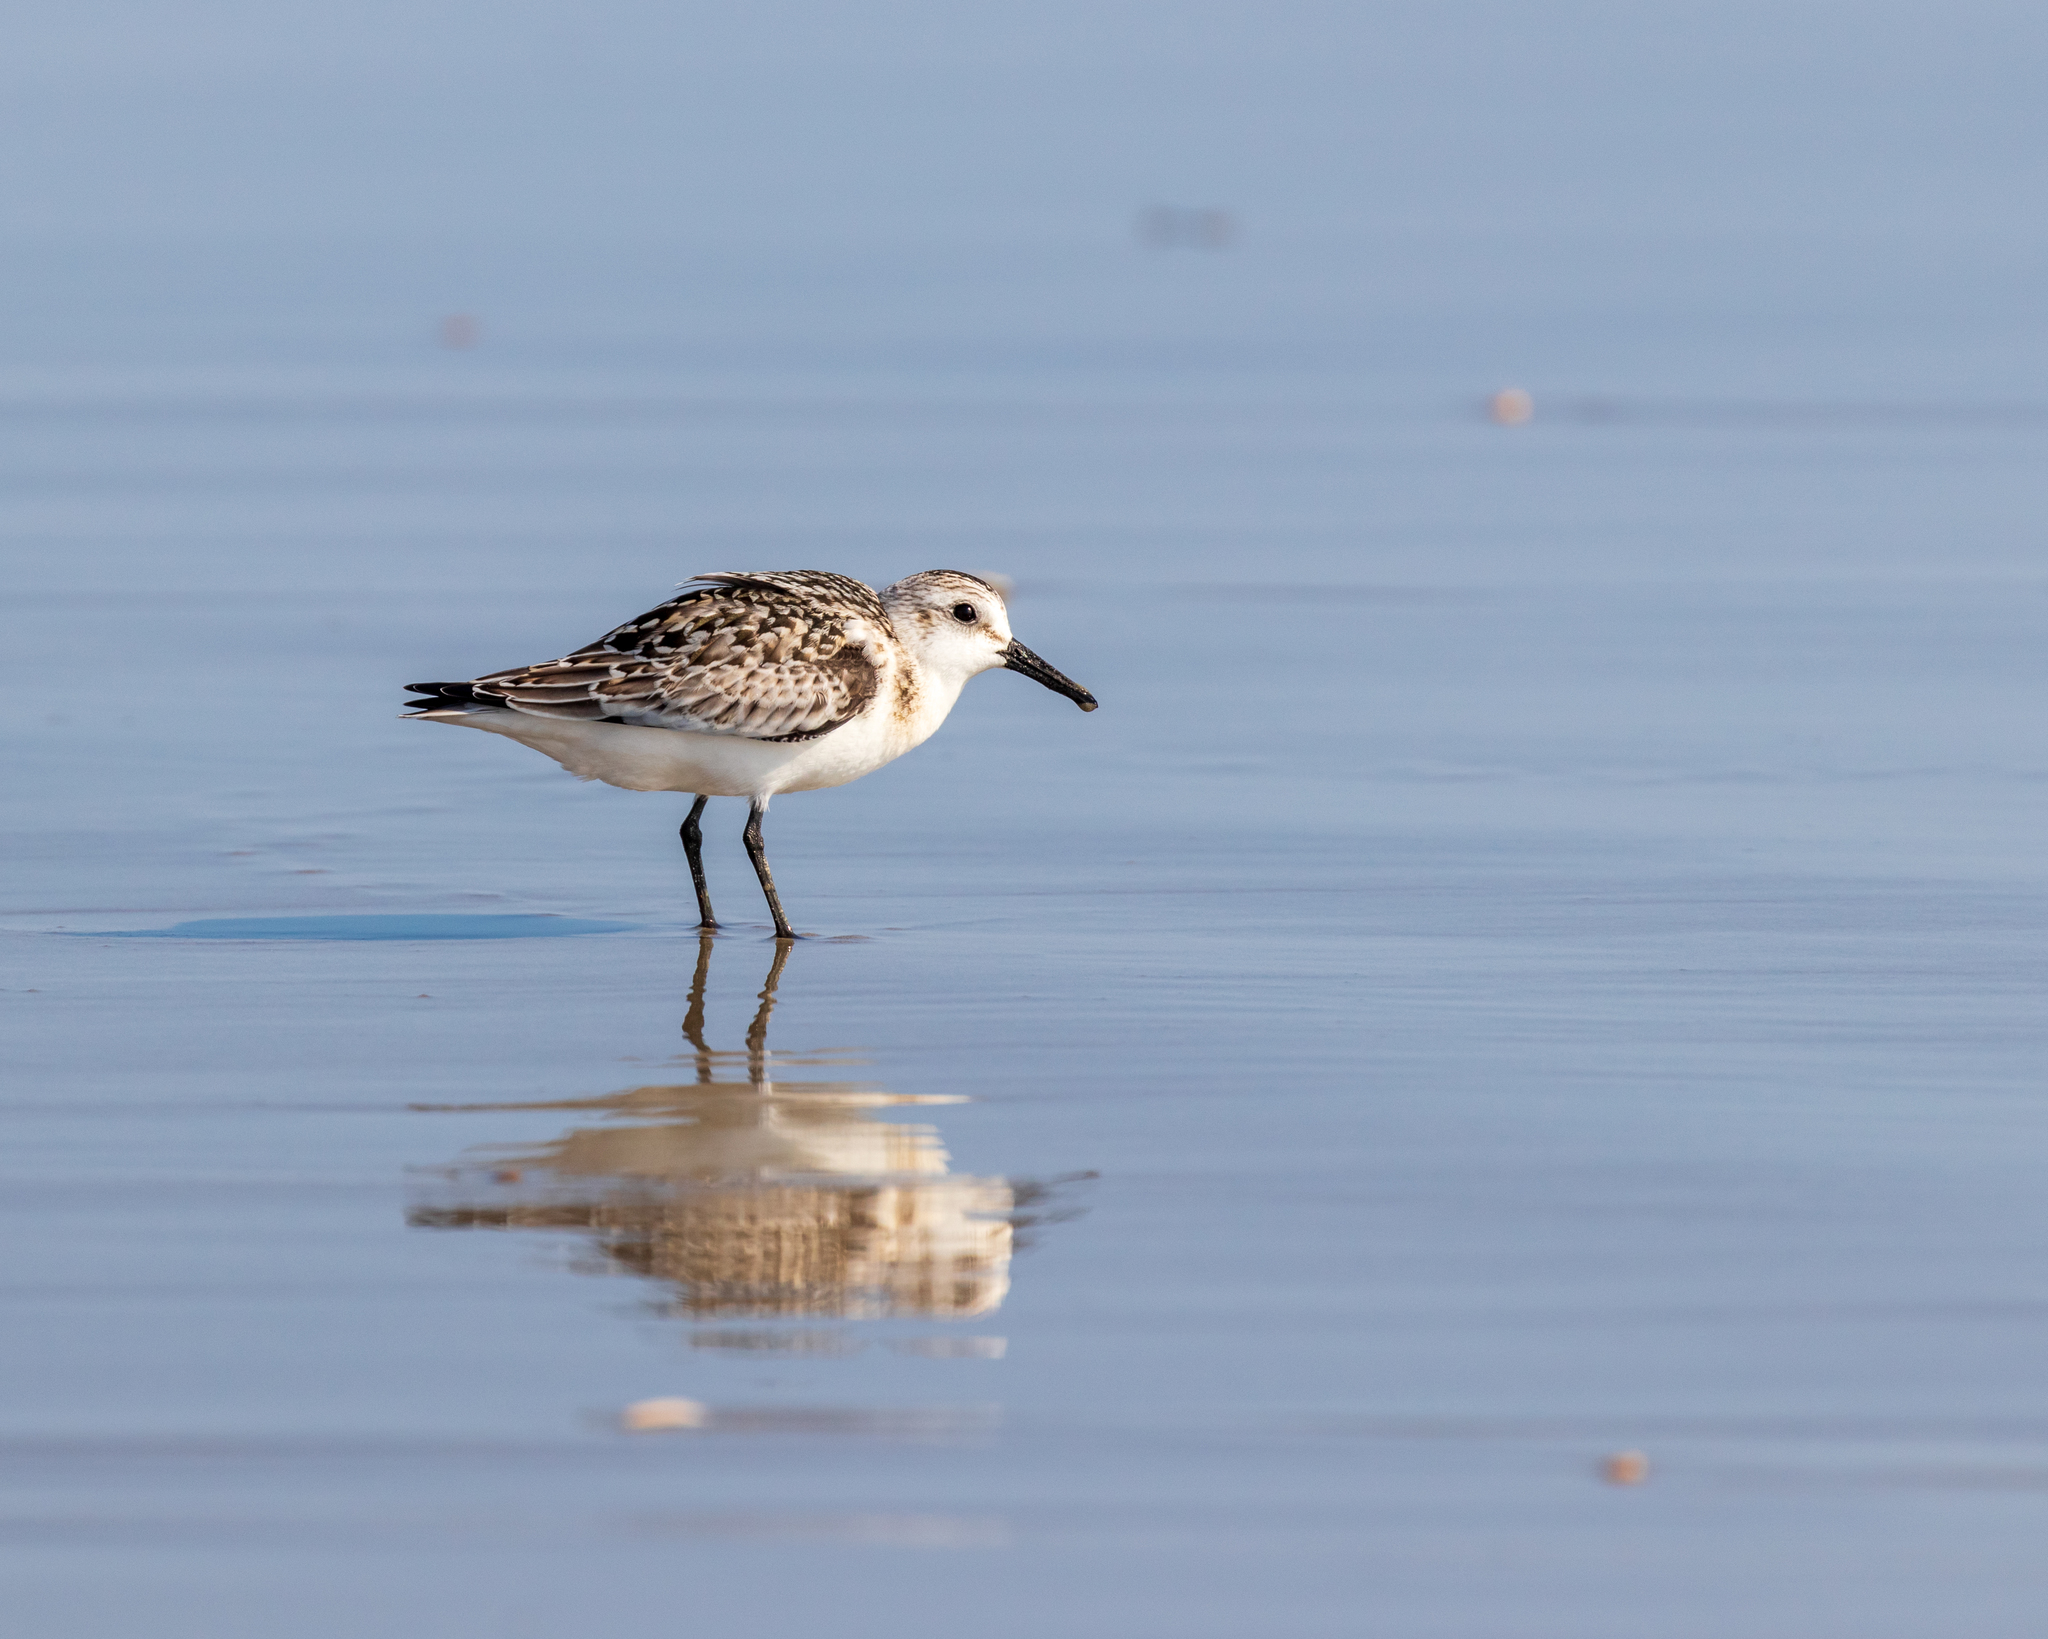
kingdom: Animalia
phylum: Chordata
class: Aves
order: Charadriiformes
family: Scolopacidae
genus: Calidris
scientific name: Calidris alba
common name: Sanderling
